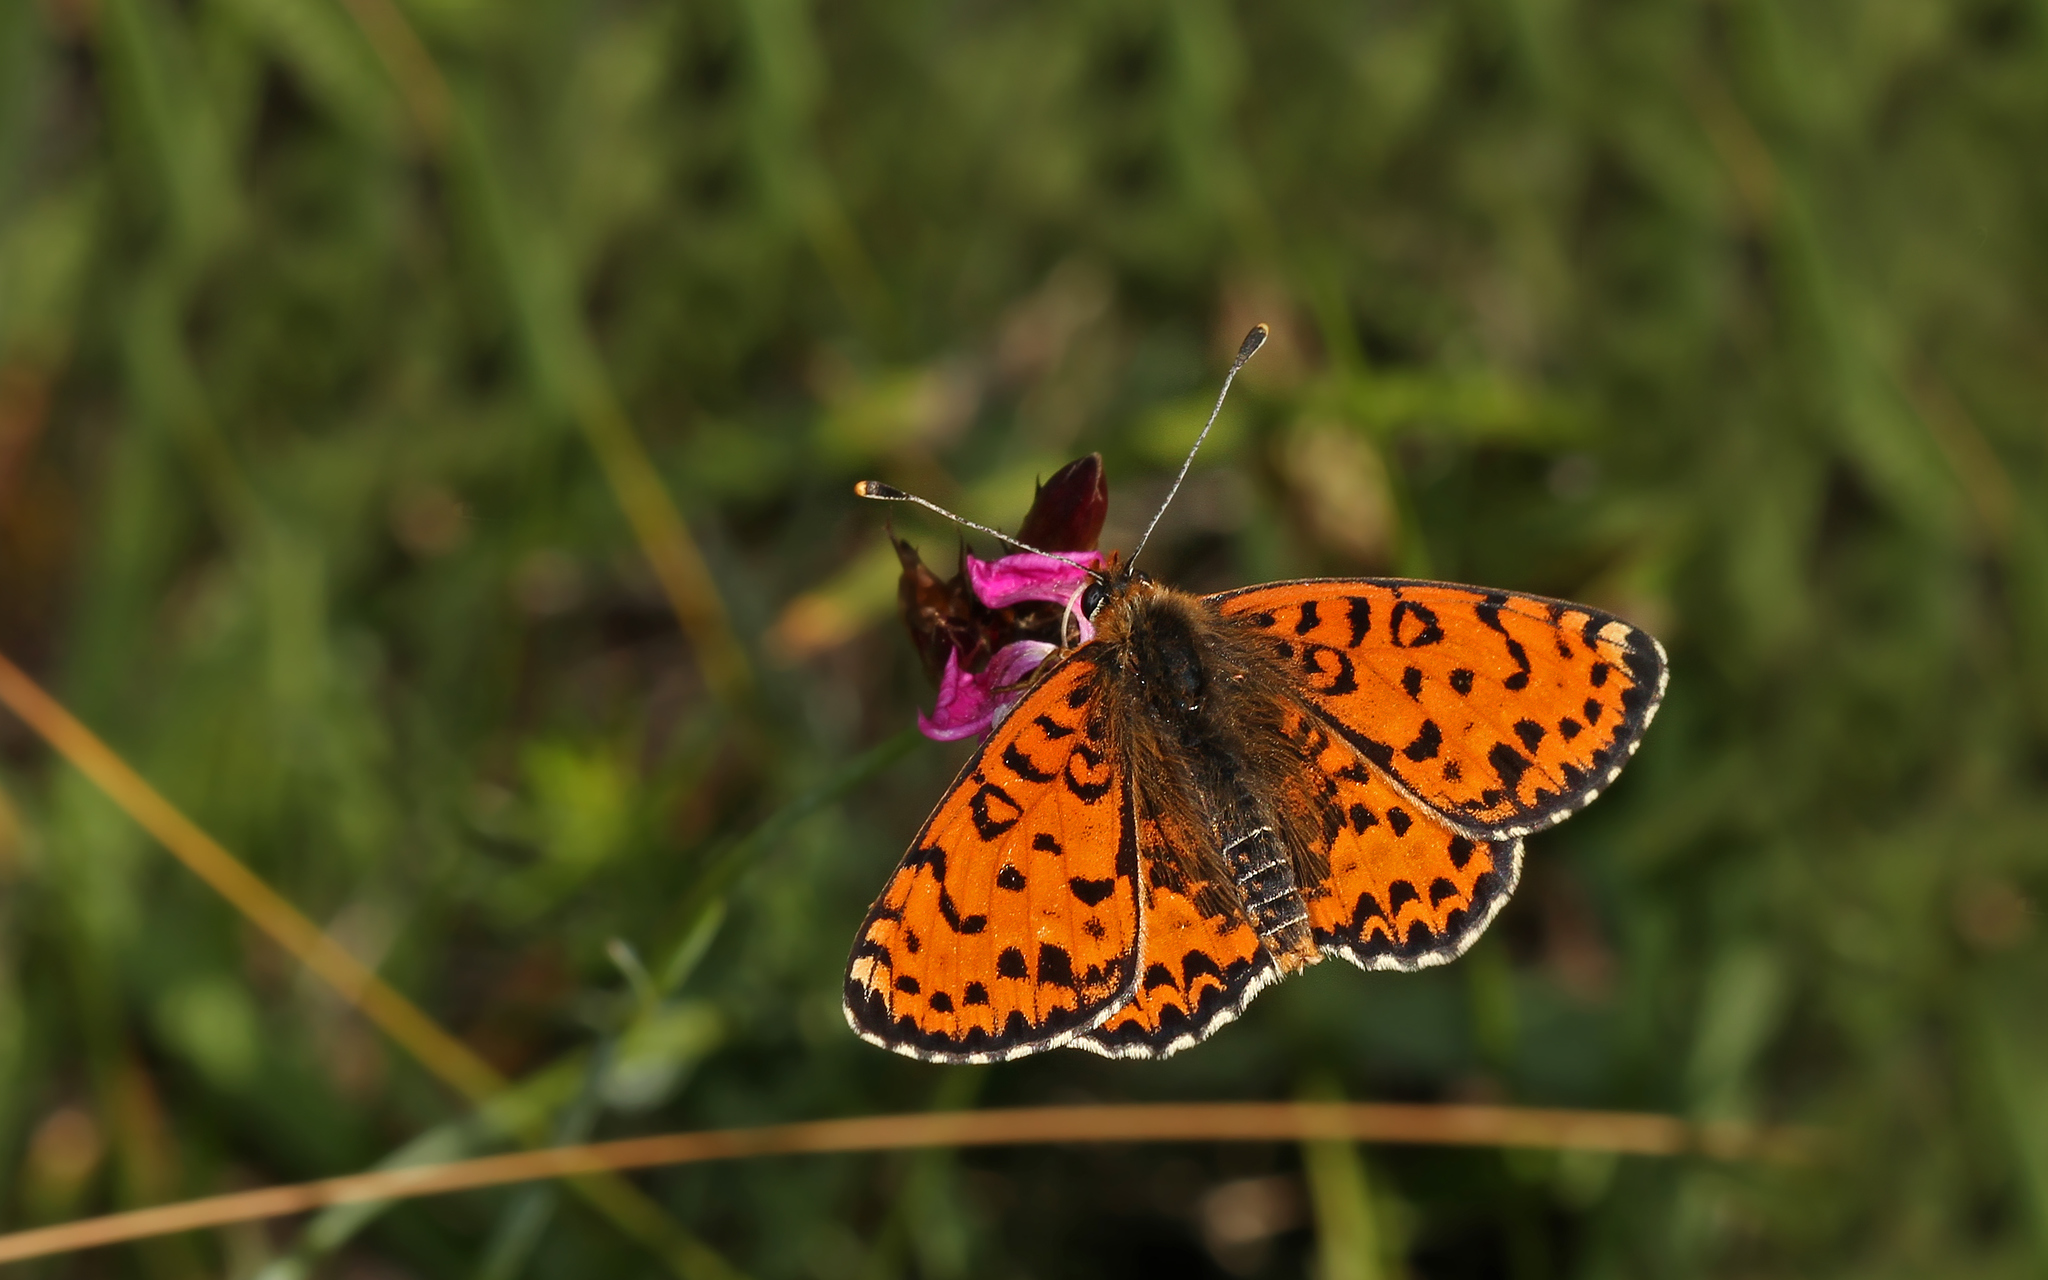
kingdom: Animalia
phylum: Arthropoda
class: Insecta
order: Lepidoptera
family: Nymphalidae
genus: Melitaea
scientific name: Melitaea didyma
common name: Spotted fritillary
